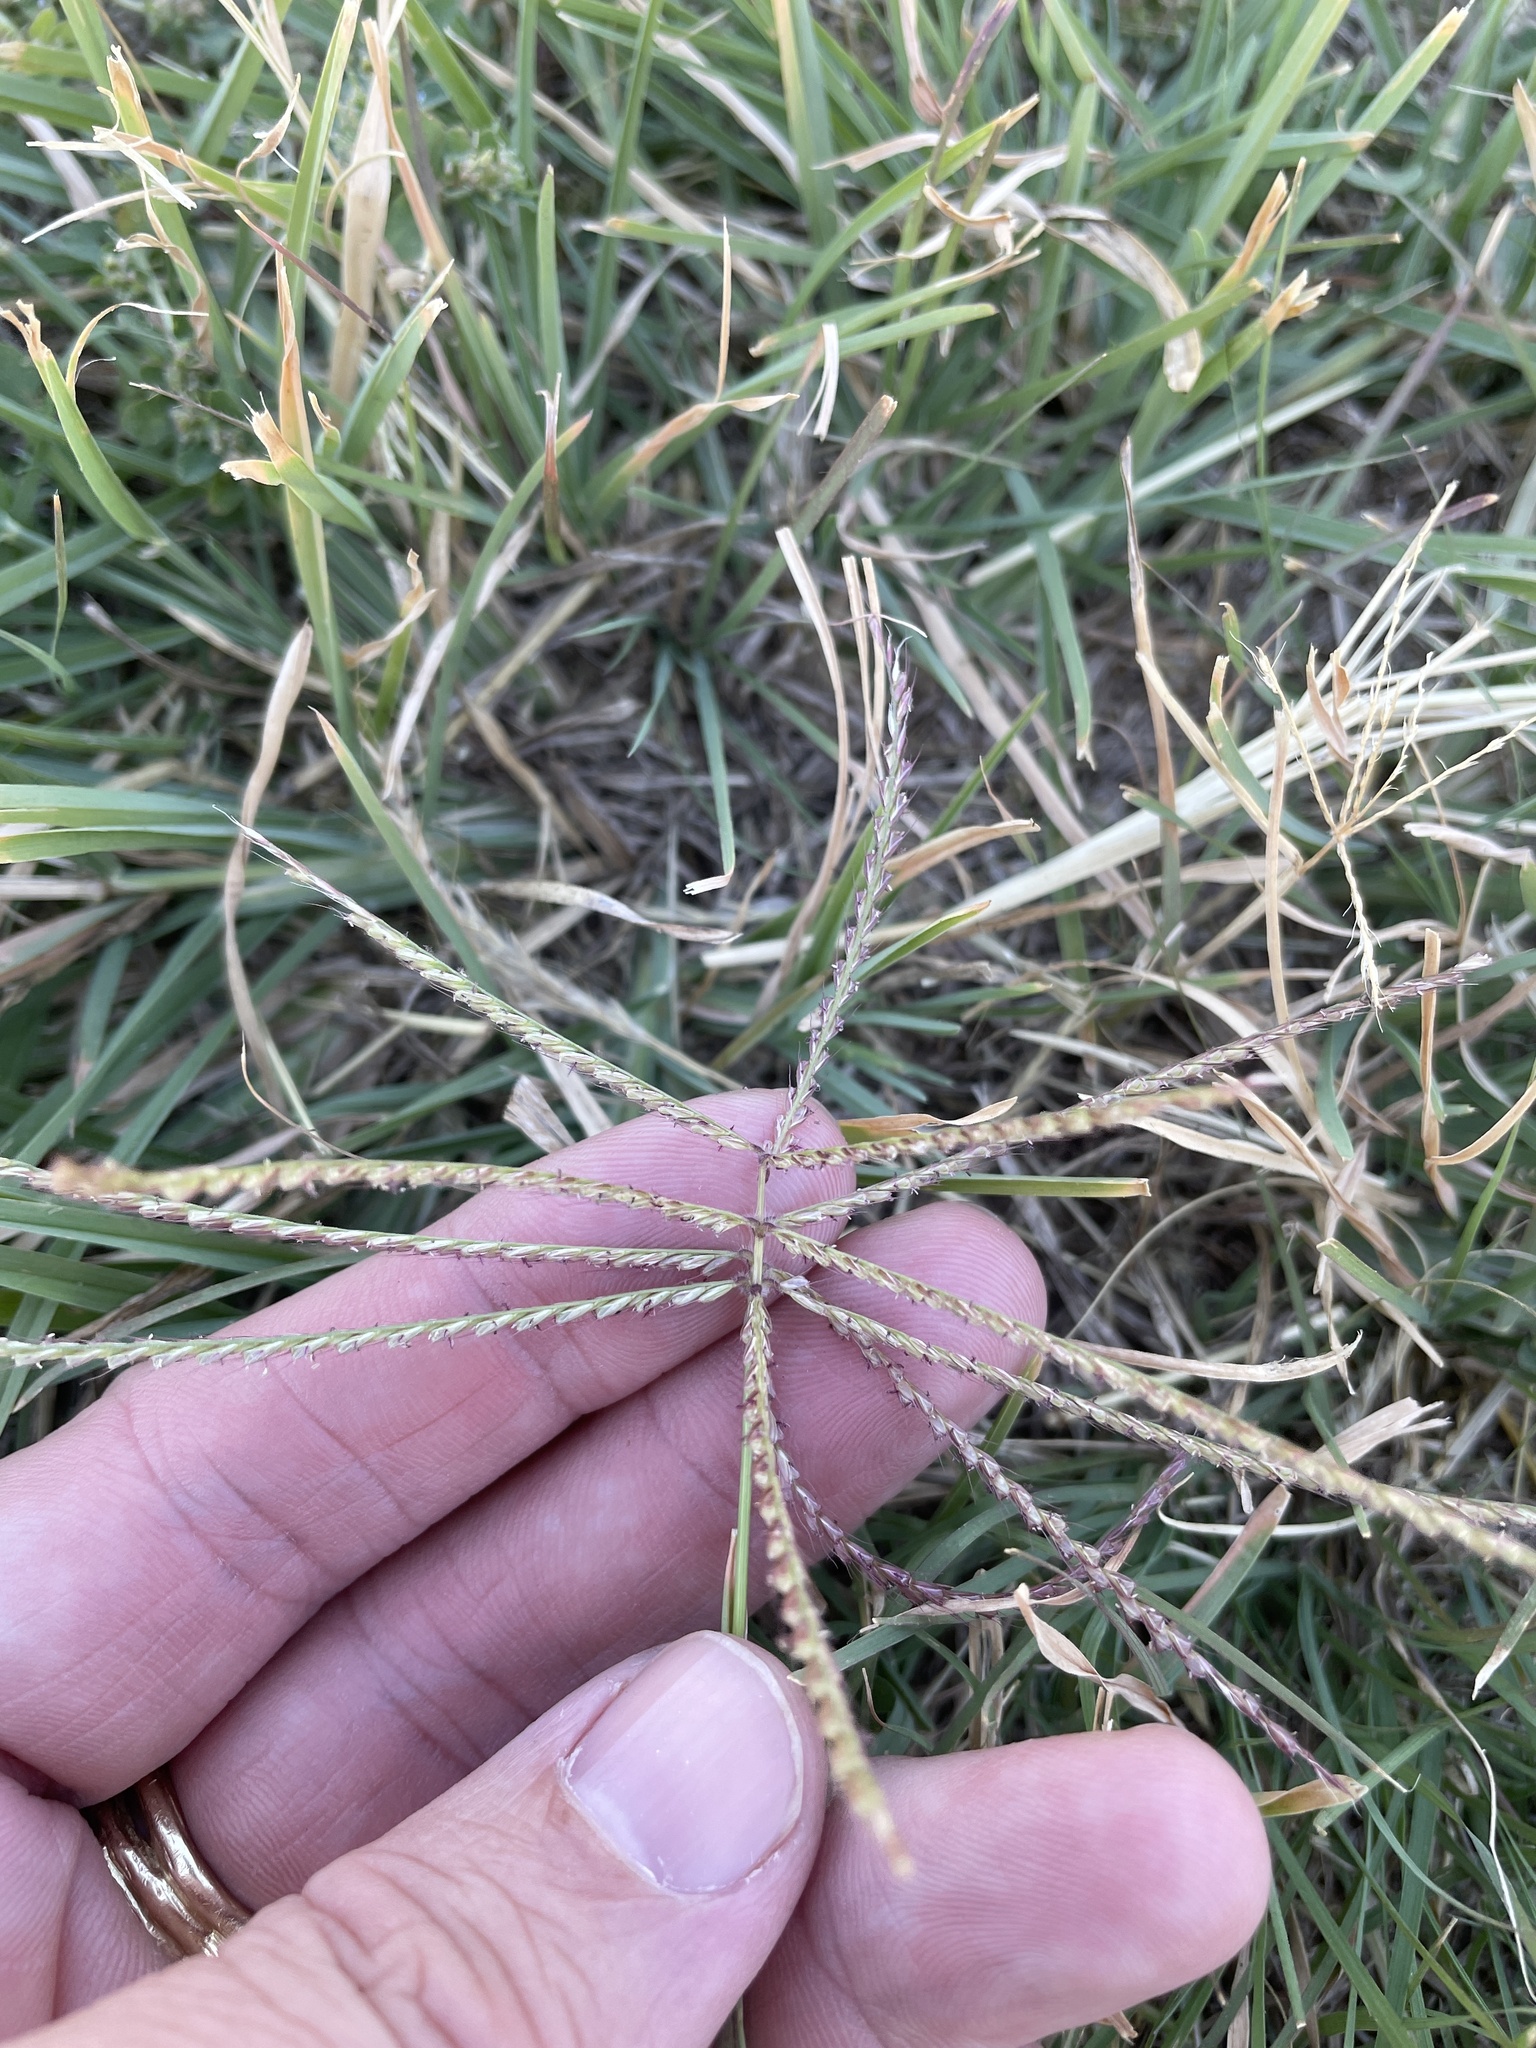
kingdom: Plantae
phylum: Tracheophyta
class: Liliopsida
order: Poales
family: Poaceae
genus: Chloris
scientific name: Chloris verticillata
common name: Tumble windmill grass
